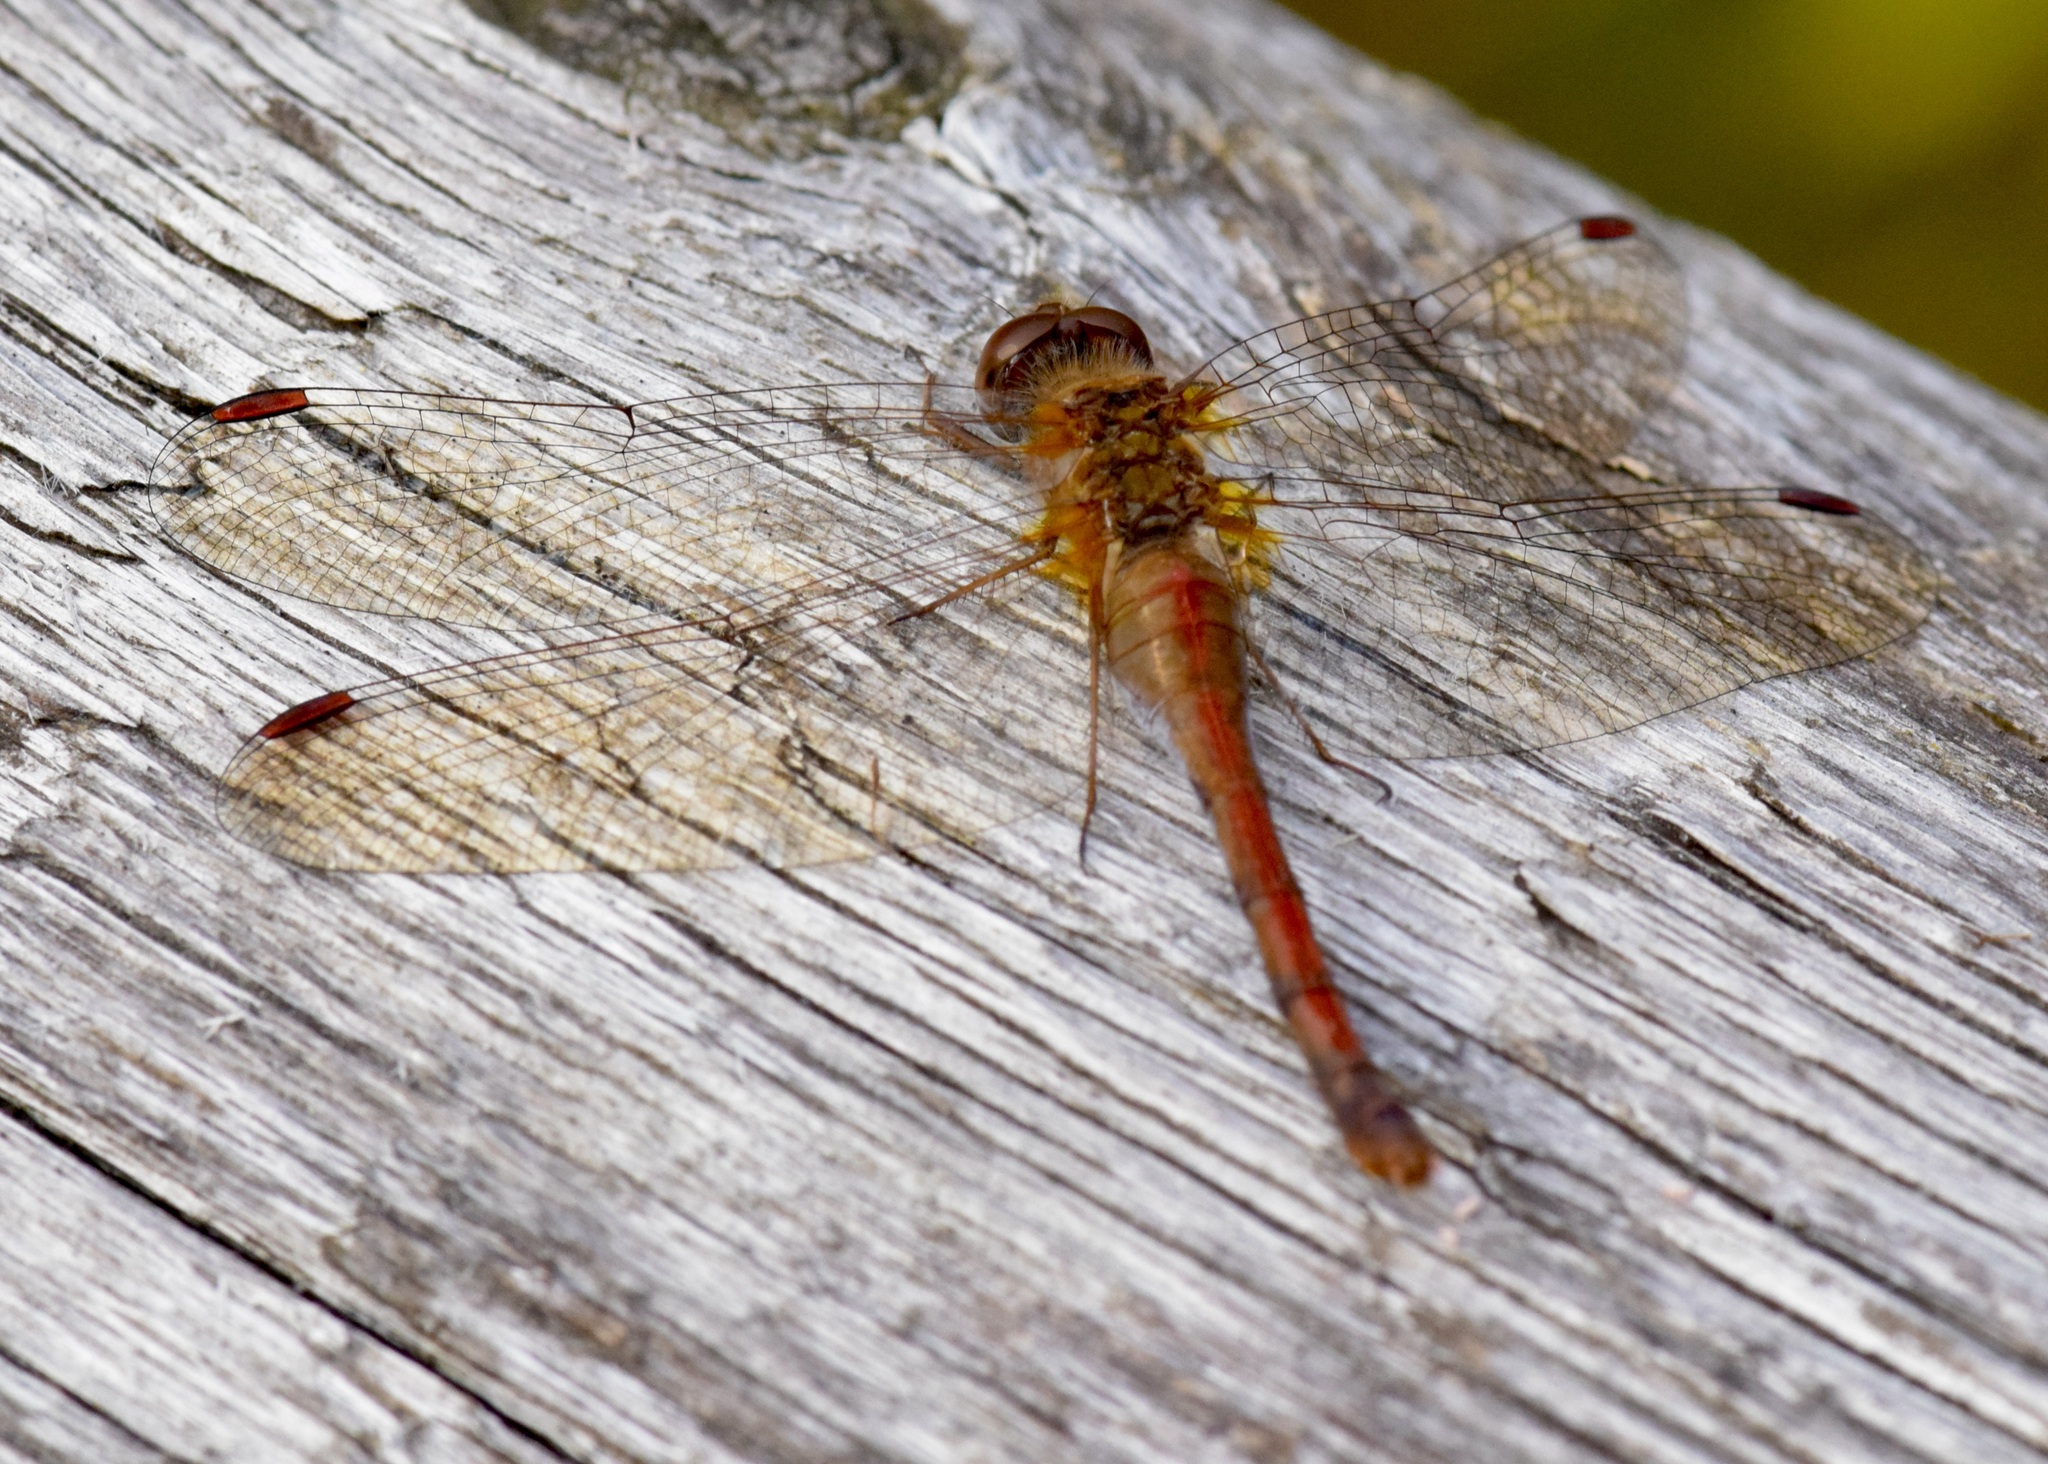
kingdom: Animalia
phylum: Arthropoda
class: Insecta
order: Odonata
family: Libellulidae
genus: Sympetrum
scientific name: Sympetrum vicinum
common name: Autumn meadowhawk
